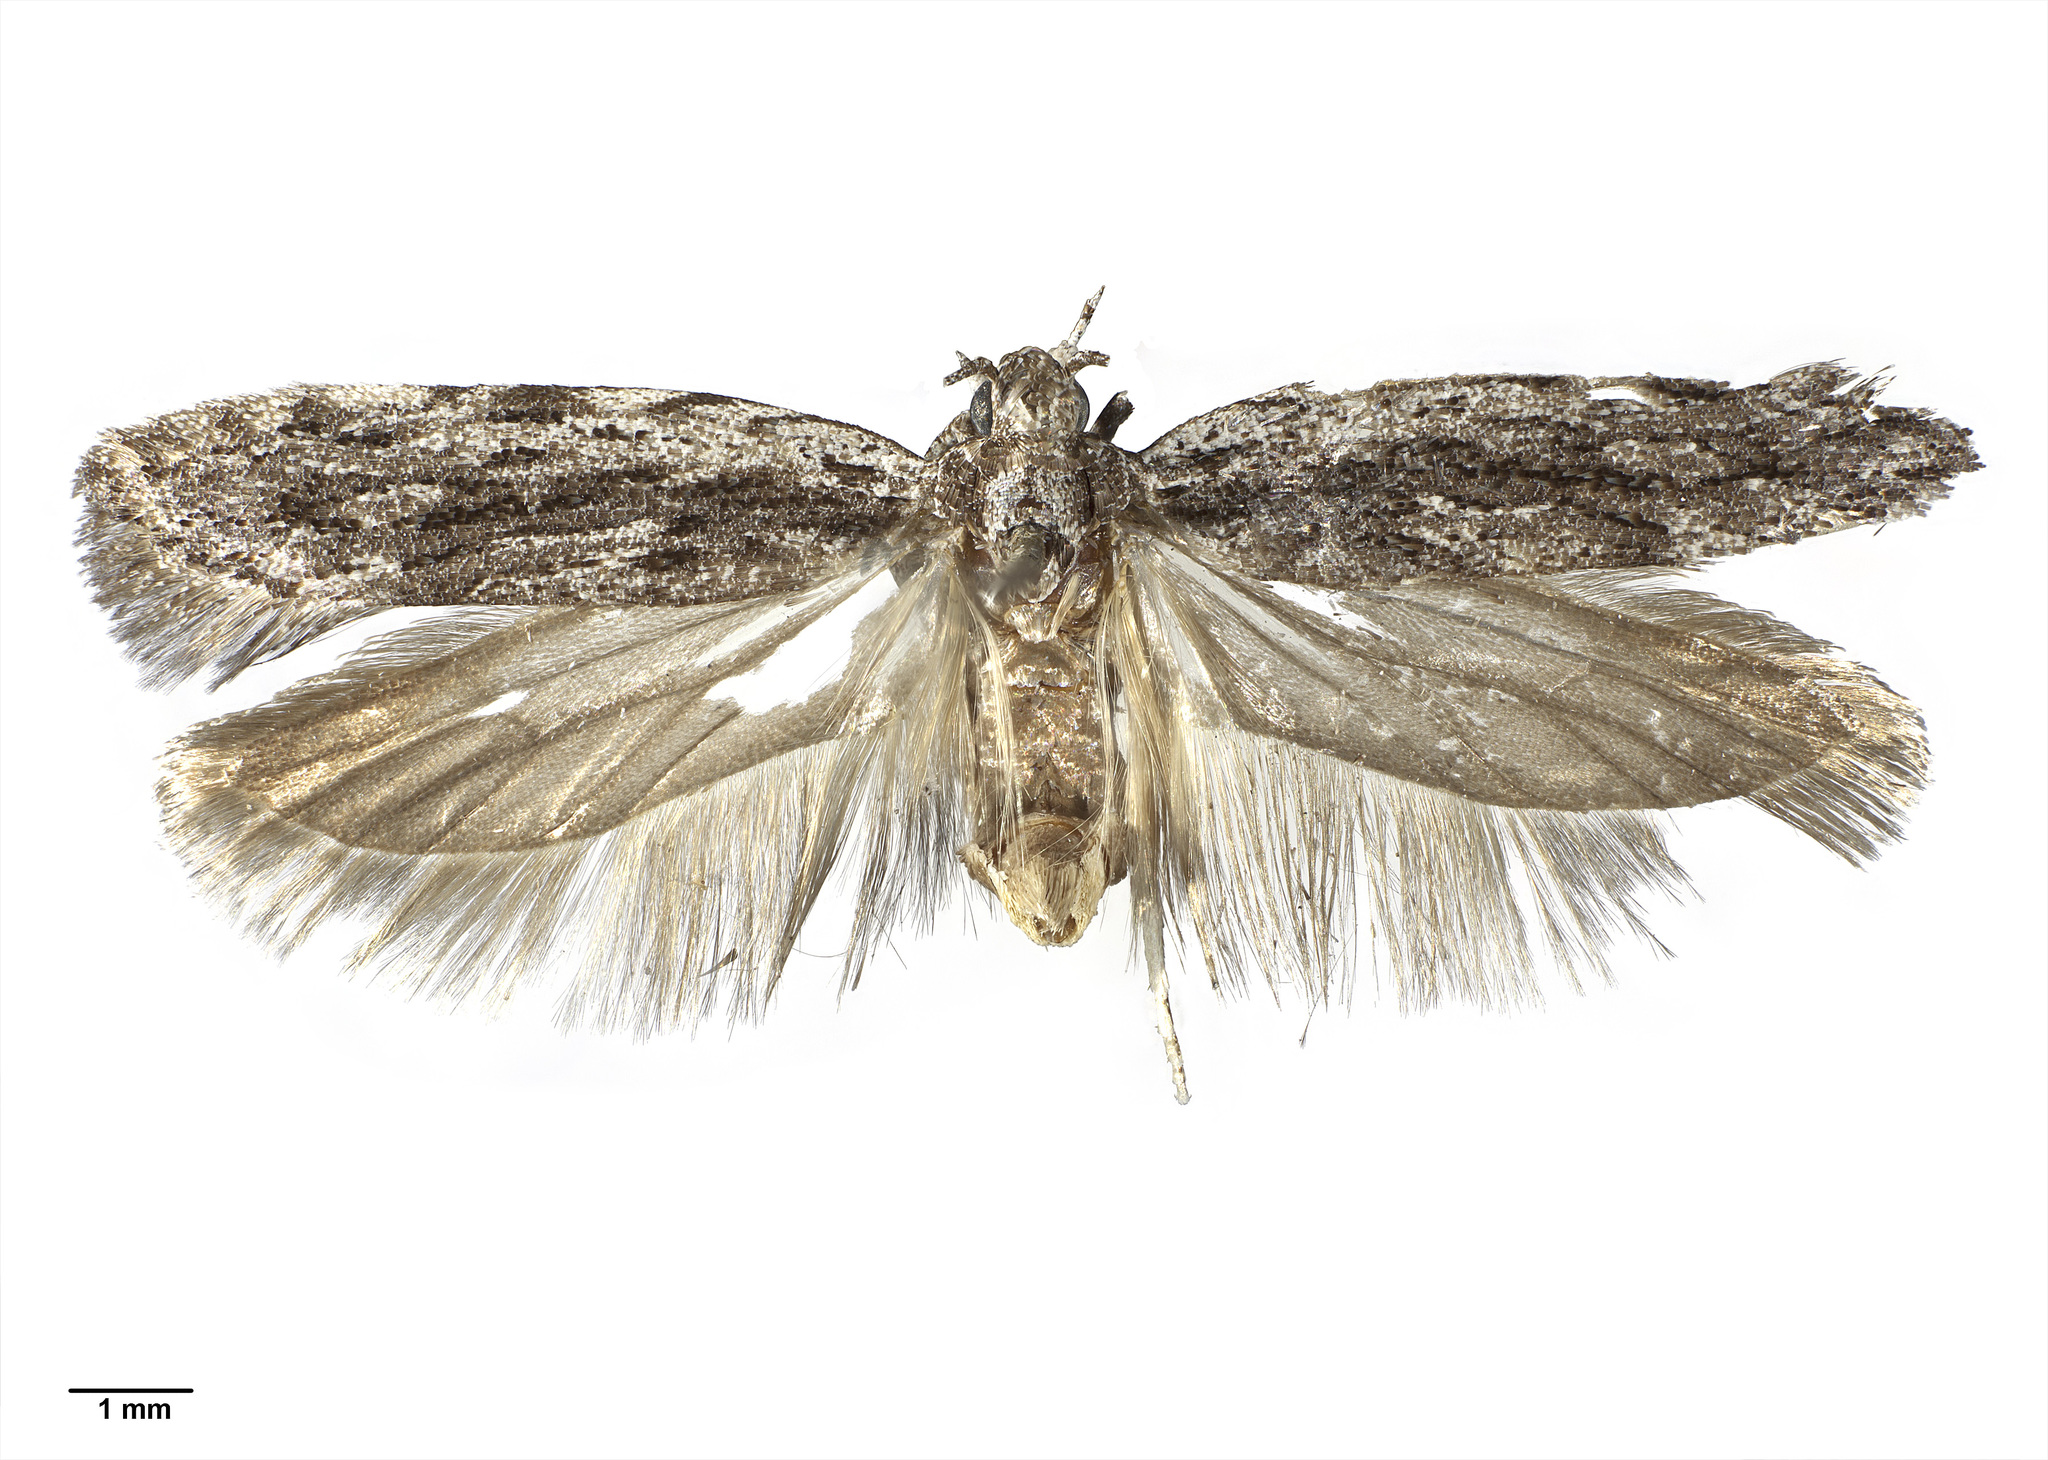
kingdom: Animalia
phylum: Arthropoda
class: Insecta
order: Lepidoptera
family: Gelechiidae
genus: Anarsia
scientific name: Anarsia dryinopa
